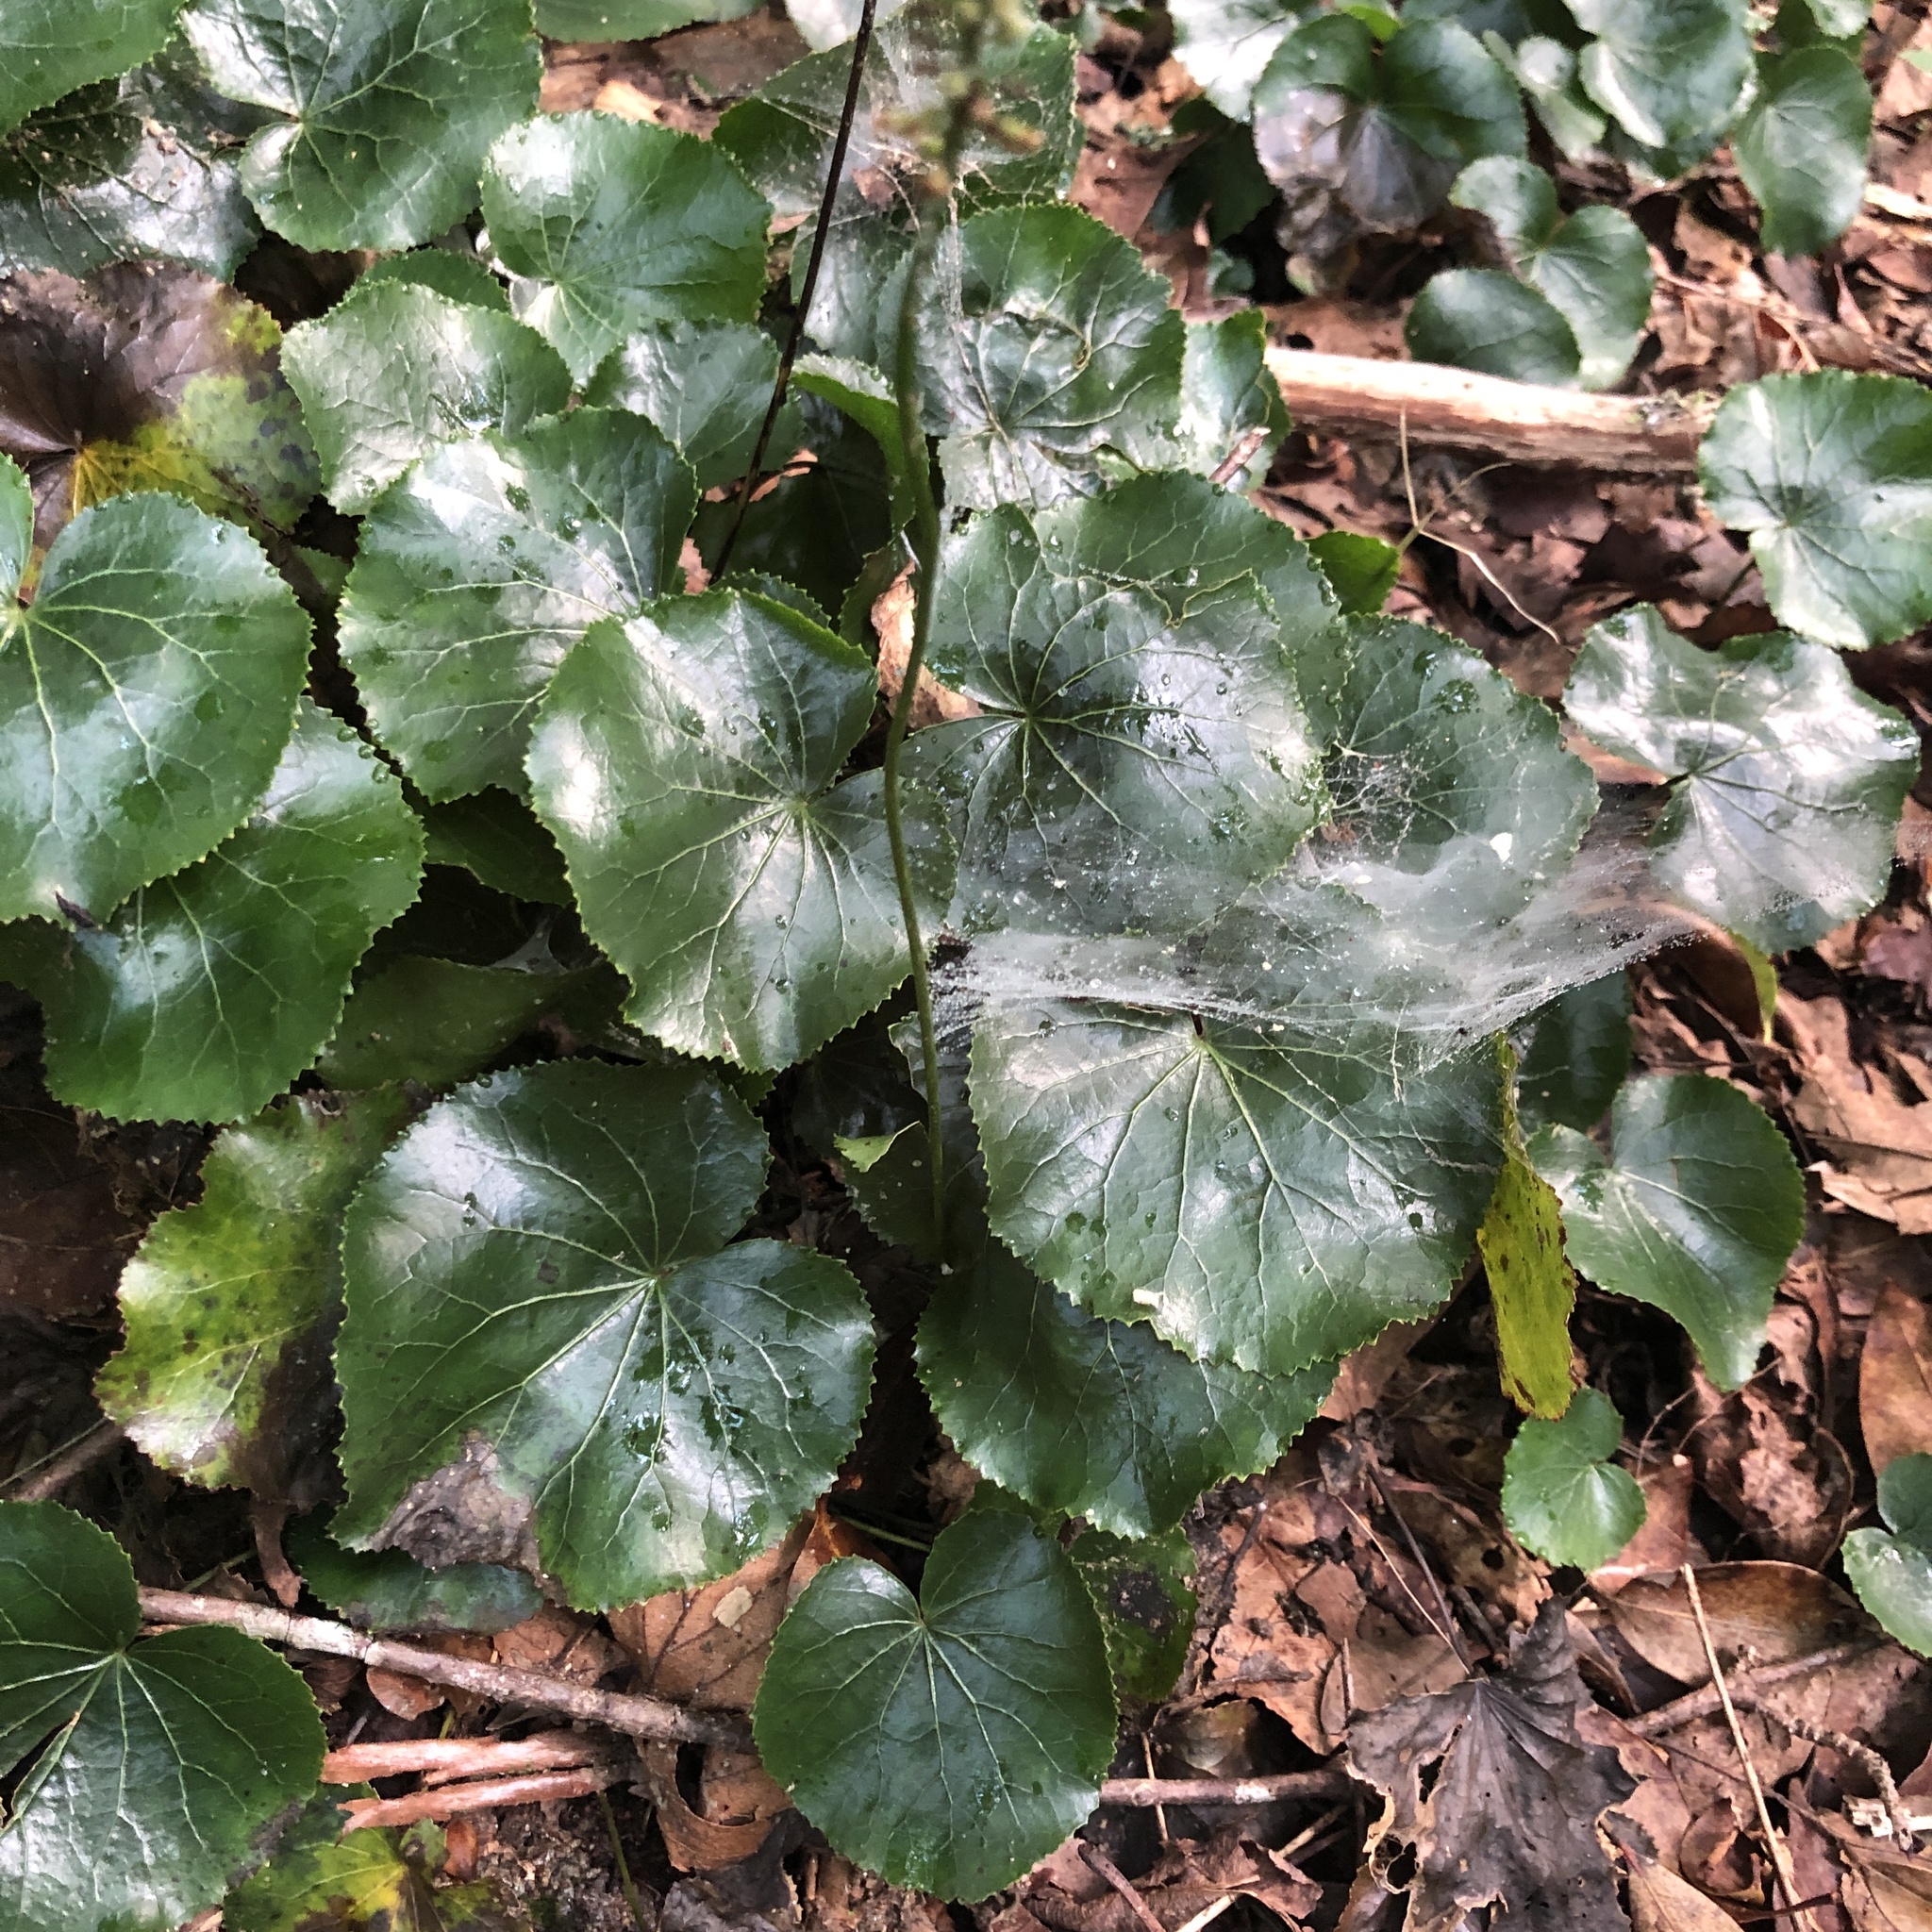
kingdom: Plantae
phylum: Tracheophyta
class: Magnoliopsida
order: Ericales
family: Diapensiaceae
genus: Galax
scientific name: Galax urceolata
